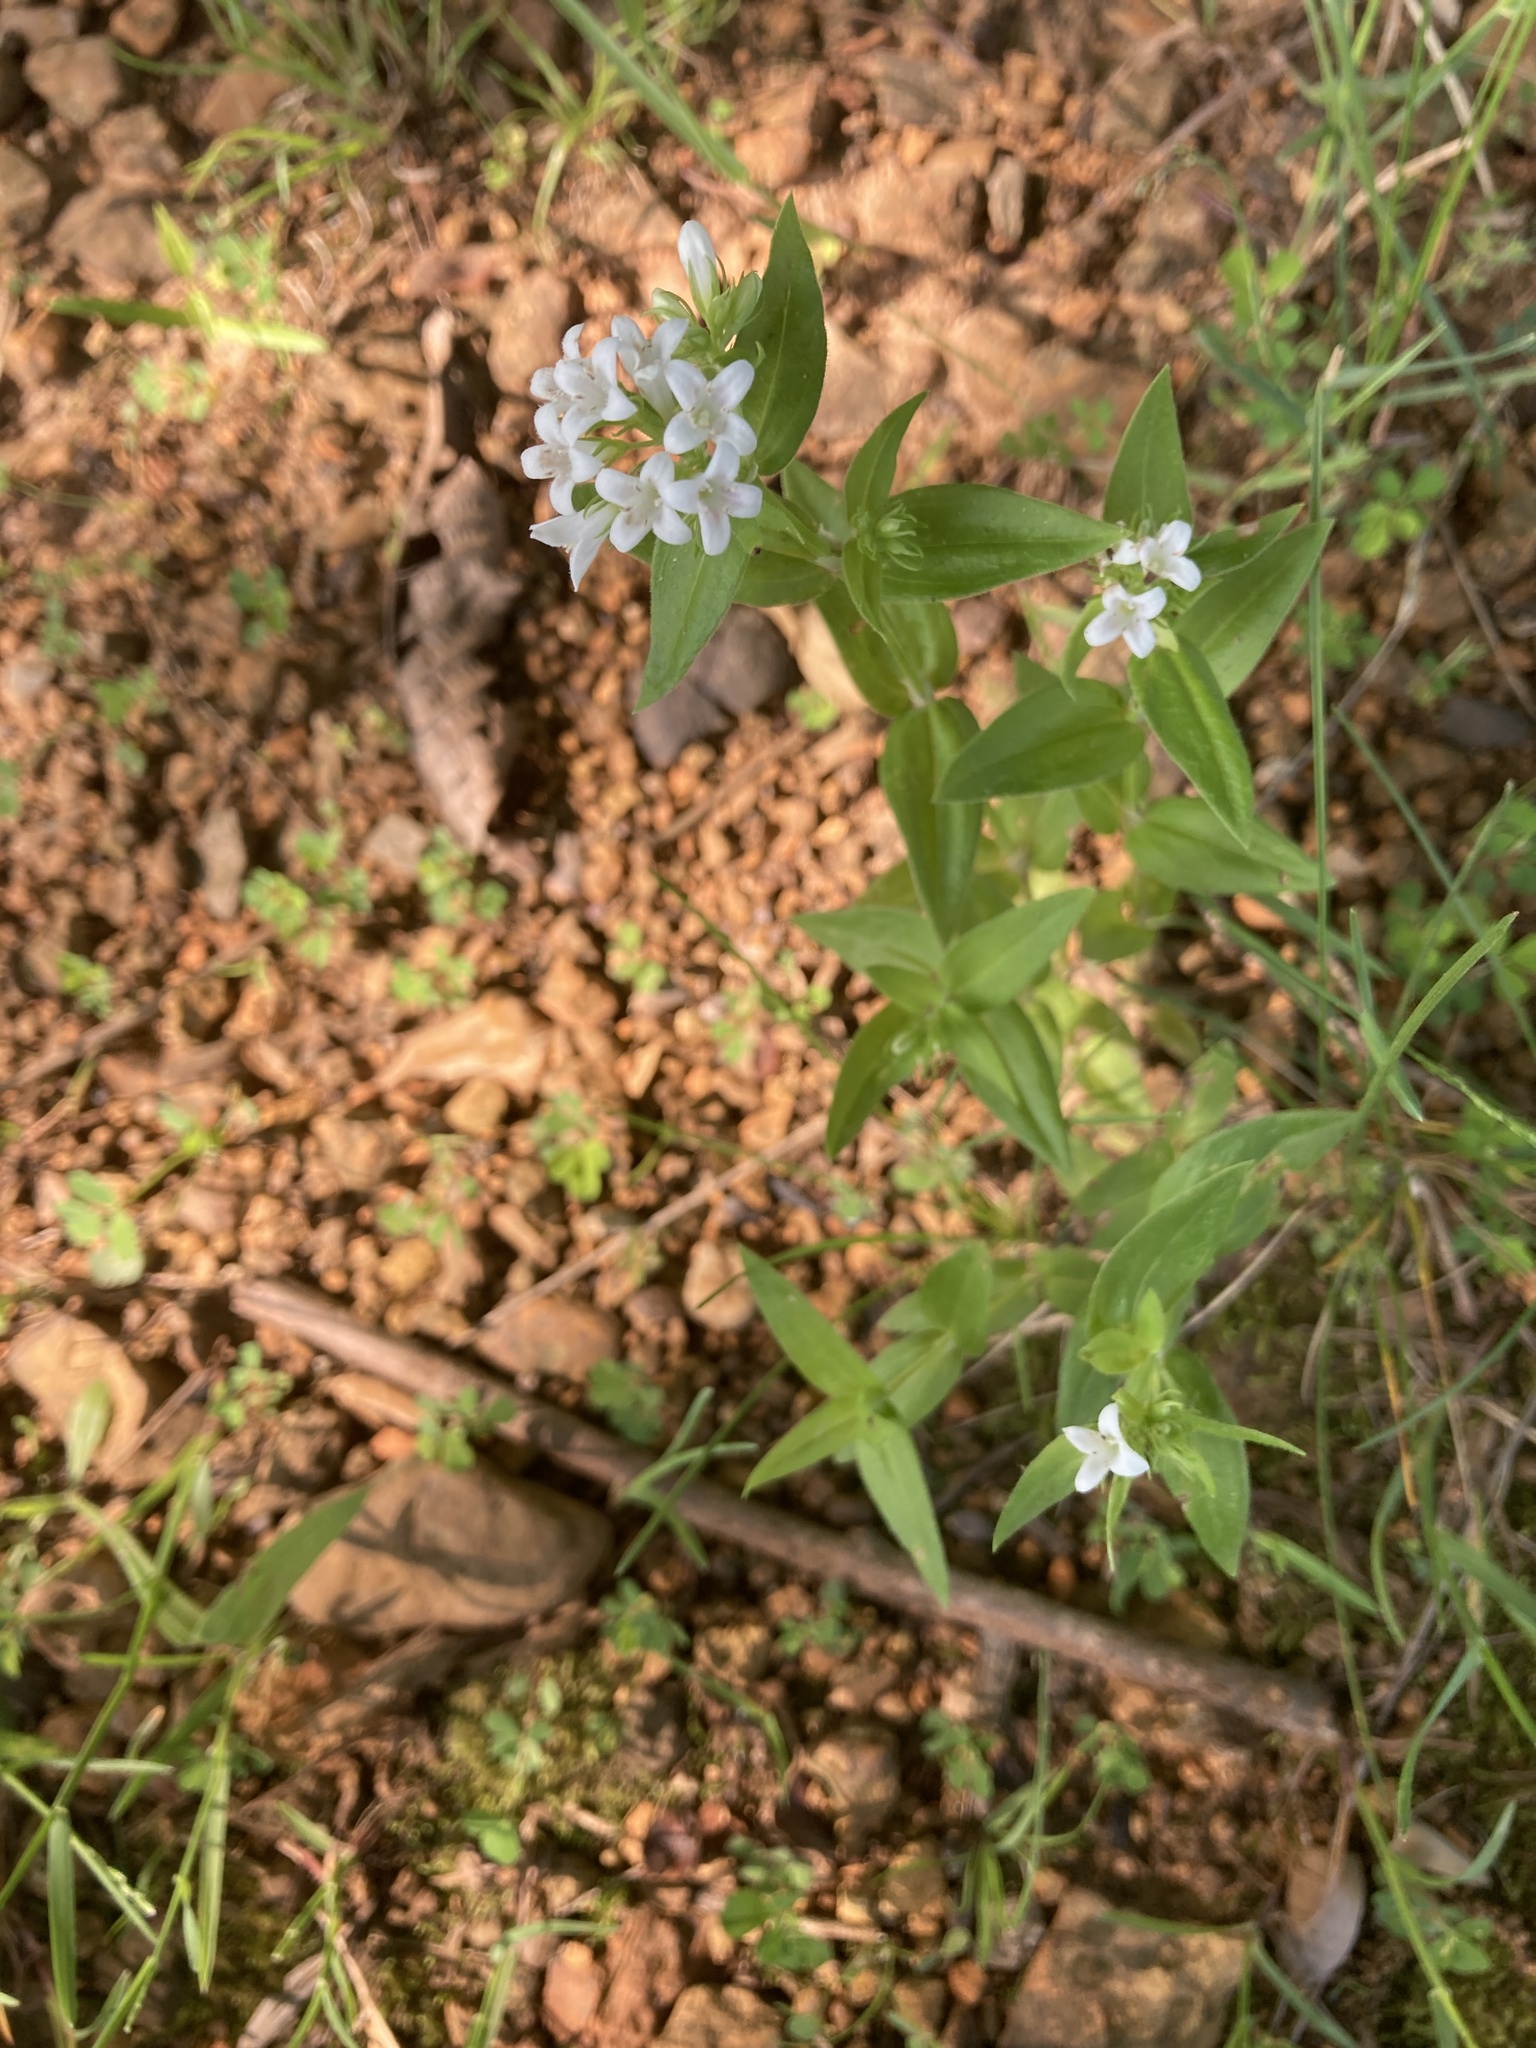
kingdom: Plantae
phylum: Tracheophyta
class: Magnoliopsida
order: Gentianales
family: Rubiaceae
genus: Houstonia
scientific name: Houstonia purpurea
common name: Summer bluet
